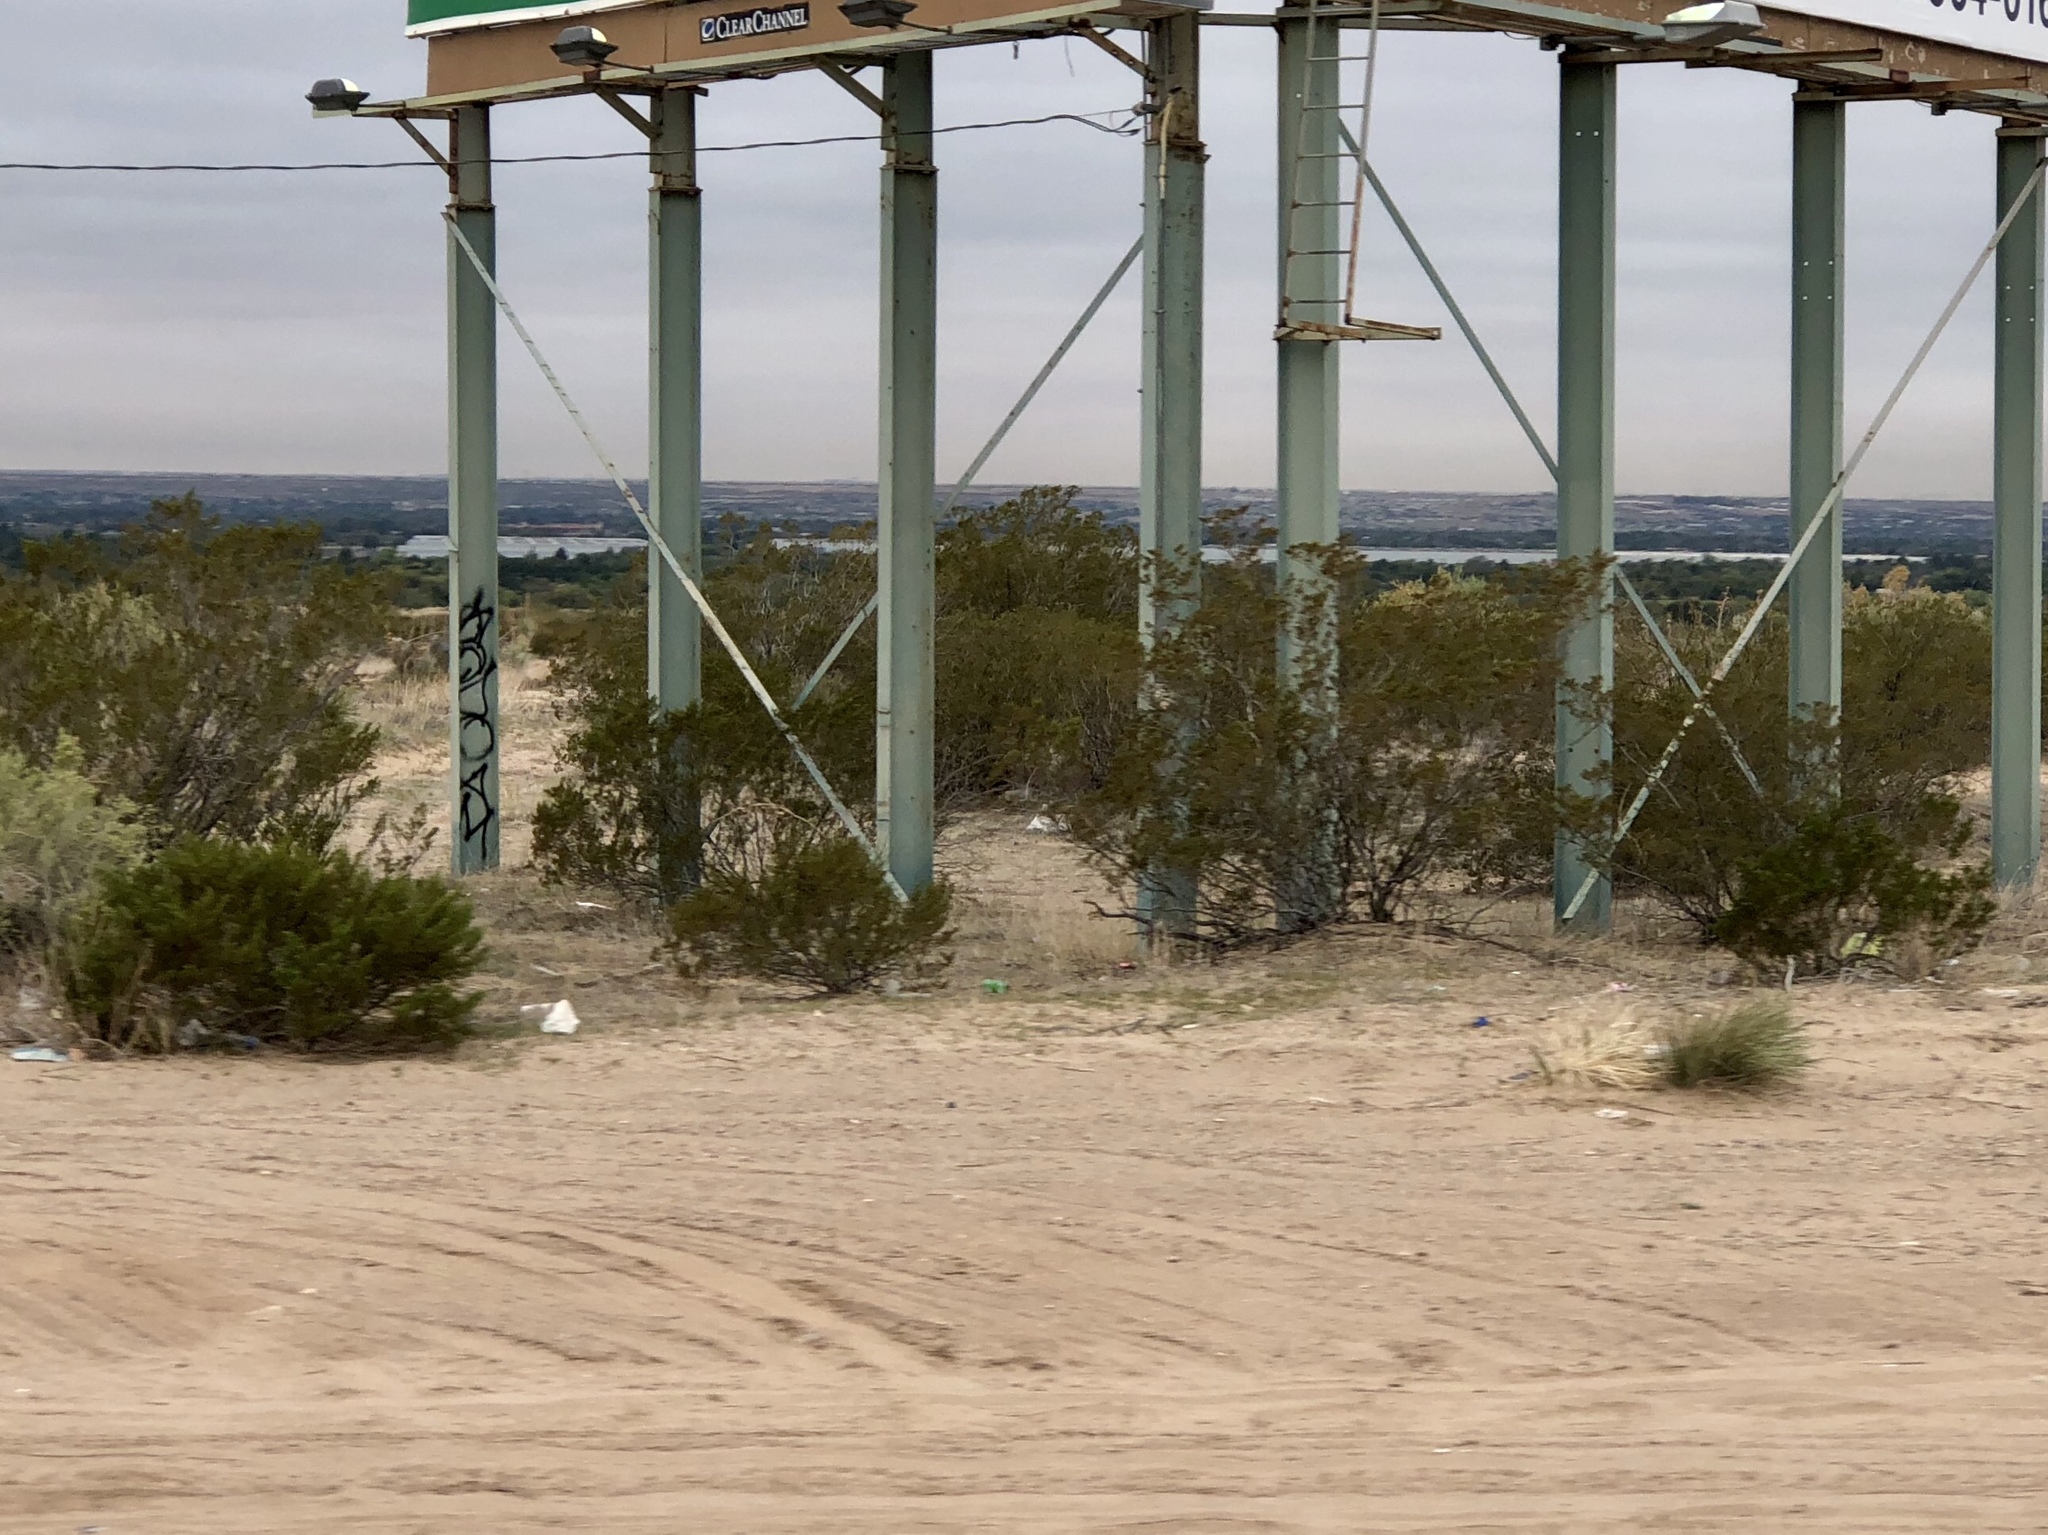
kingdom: Plantae
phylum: Tracheophyta
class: Magnoliopsida
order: Zygophyllales
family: Zygophyllaceae
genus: Larrea
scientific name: Larrea tridentata
